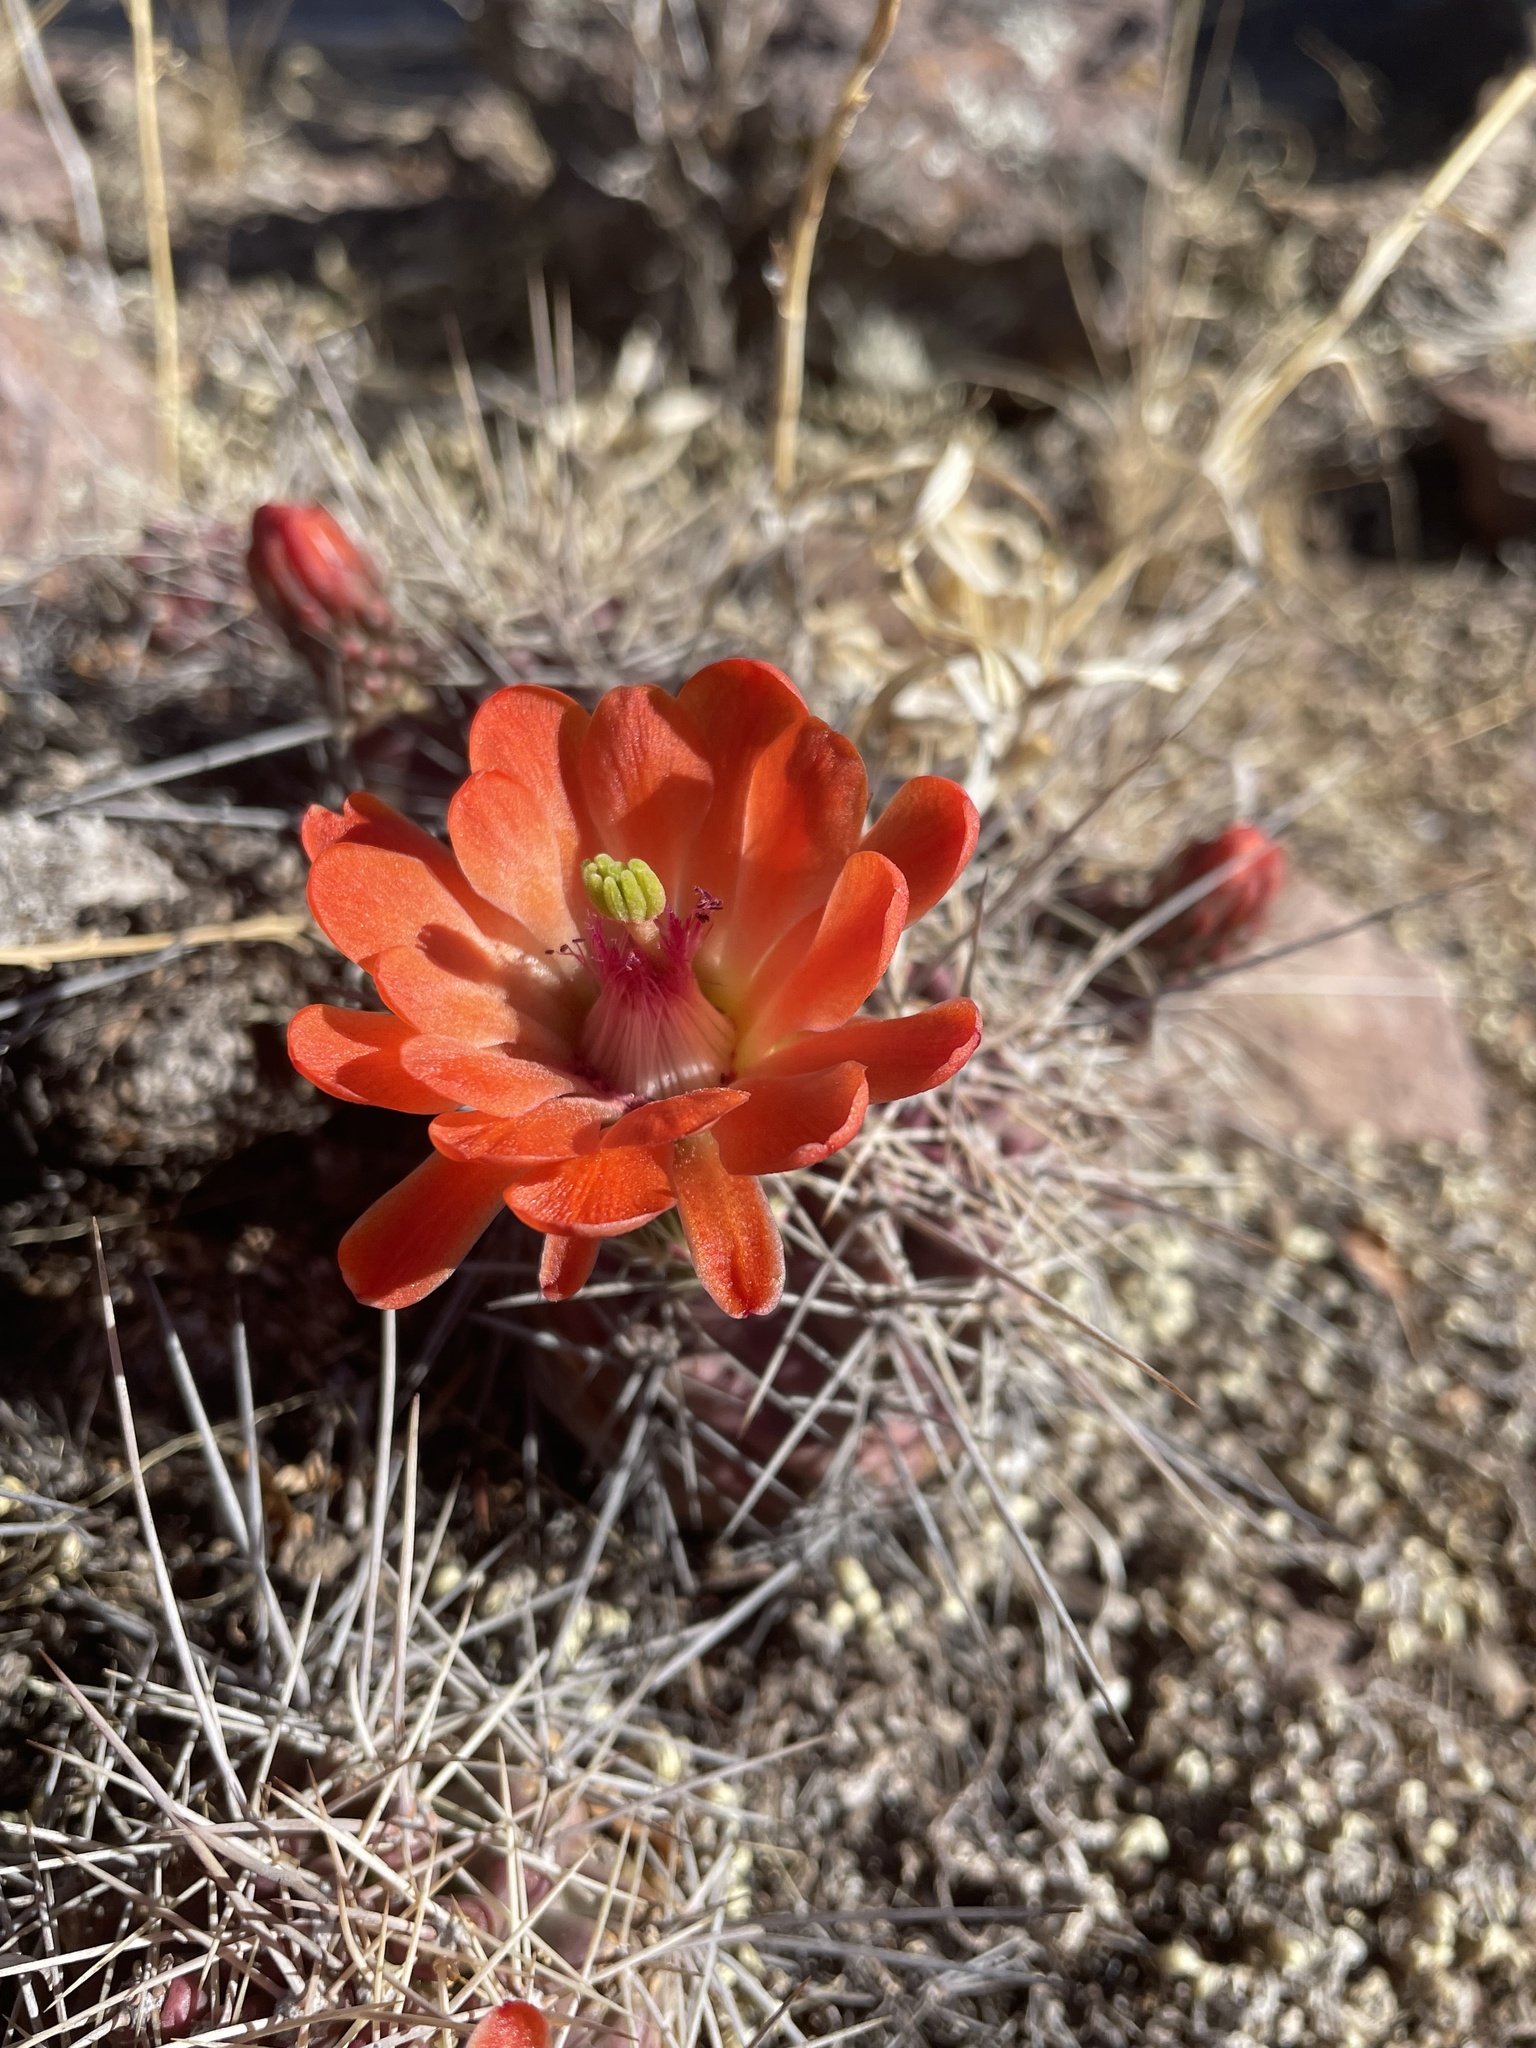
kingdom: Plantae
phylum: Tracheophyta
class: Magnoliopsida
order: Caryophyllales
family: Cactaceae
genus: Echinocereus
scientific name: Echinocereus coccineus
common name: Scarlet hedgehog cactus
